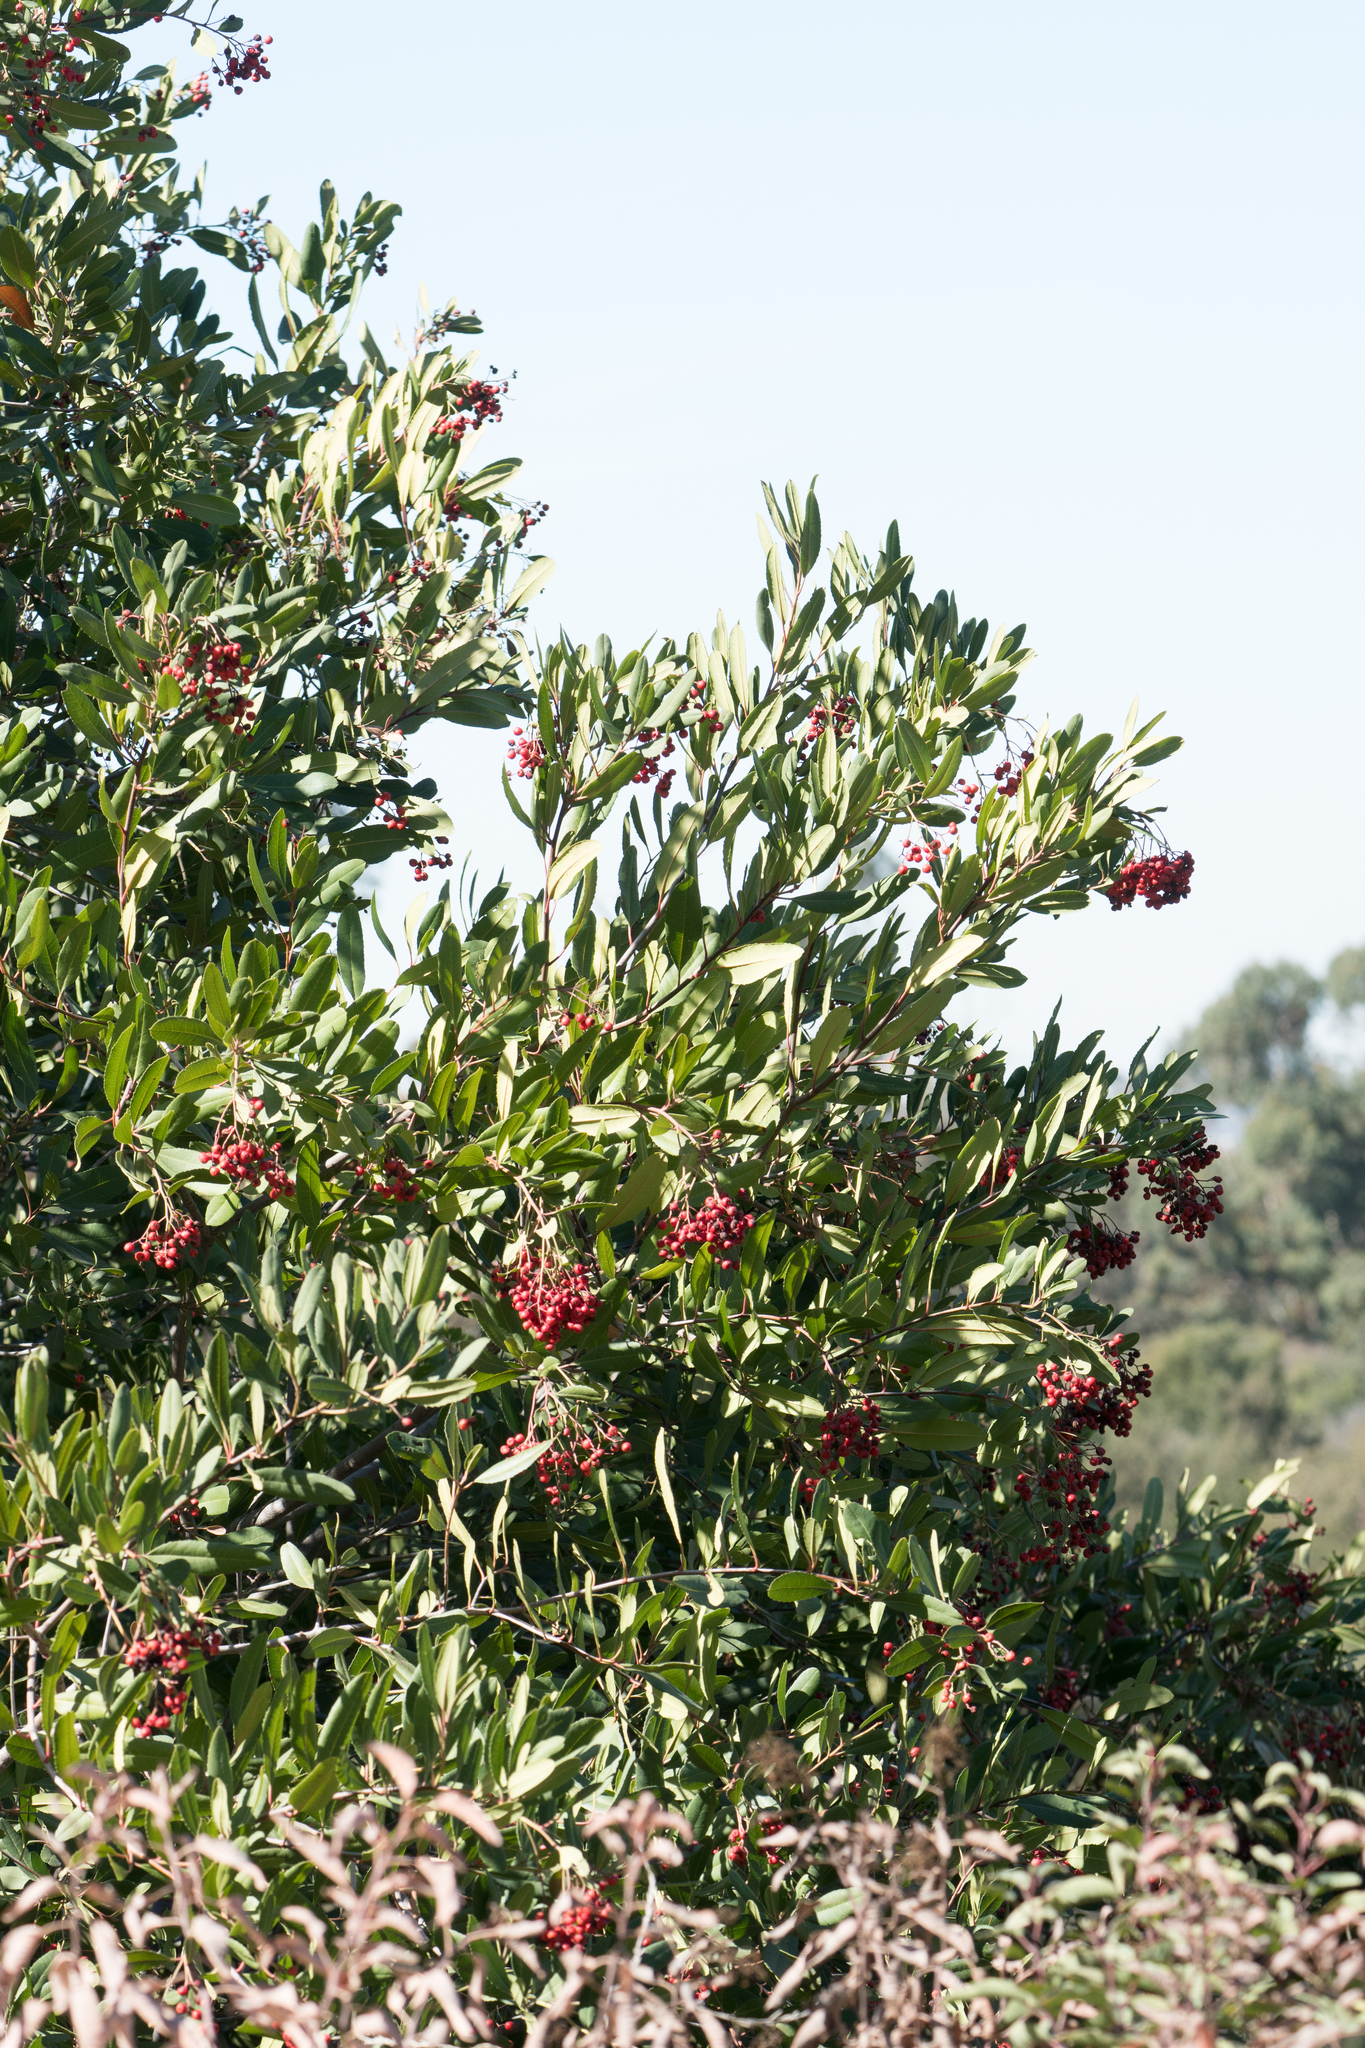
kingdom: Plantae
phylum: Tracheophyta
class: Magnoliopsida
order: Rosales
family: Rosaceae
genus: Heteromeles
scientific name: Heteromeles arbutifolia
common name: California-holly
